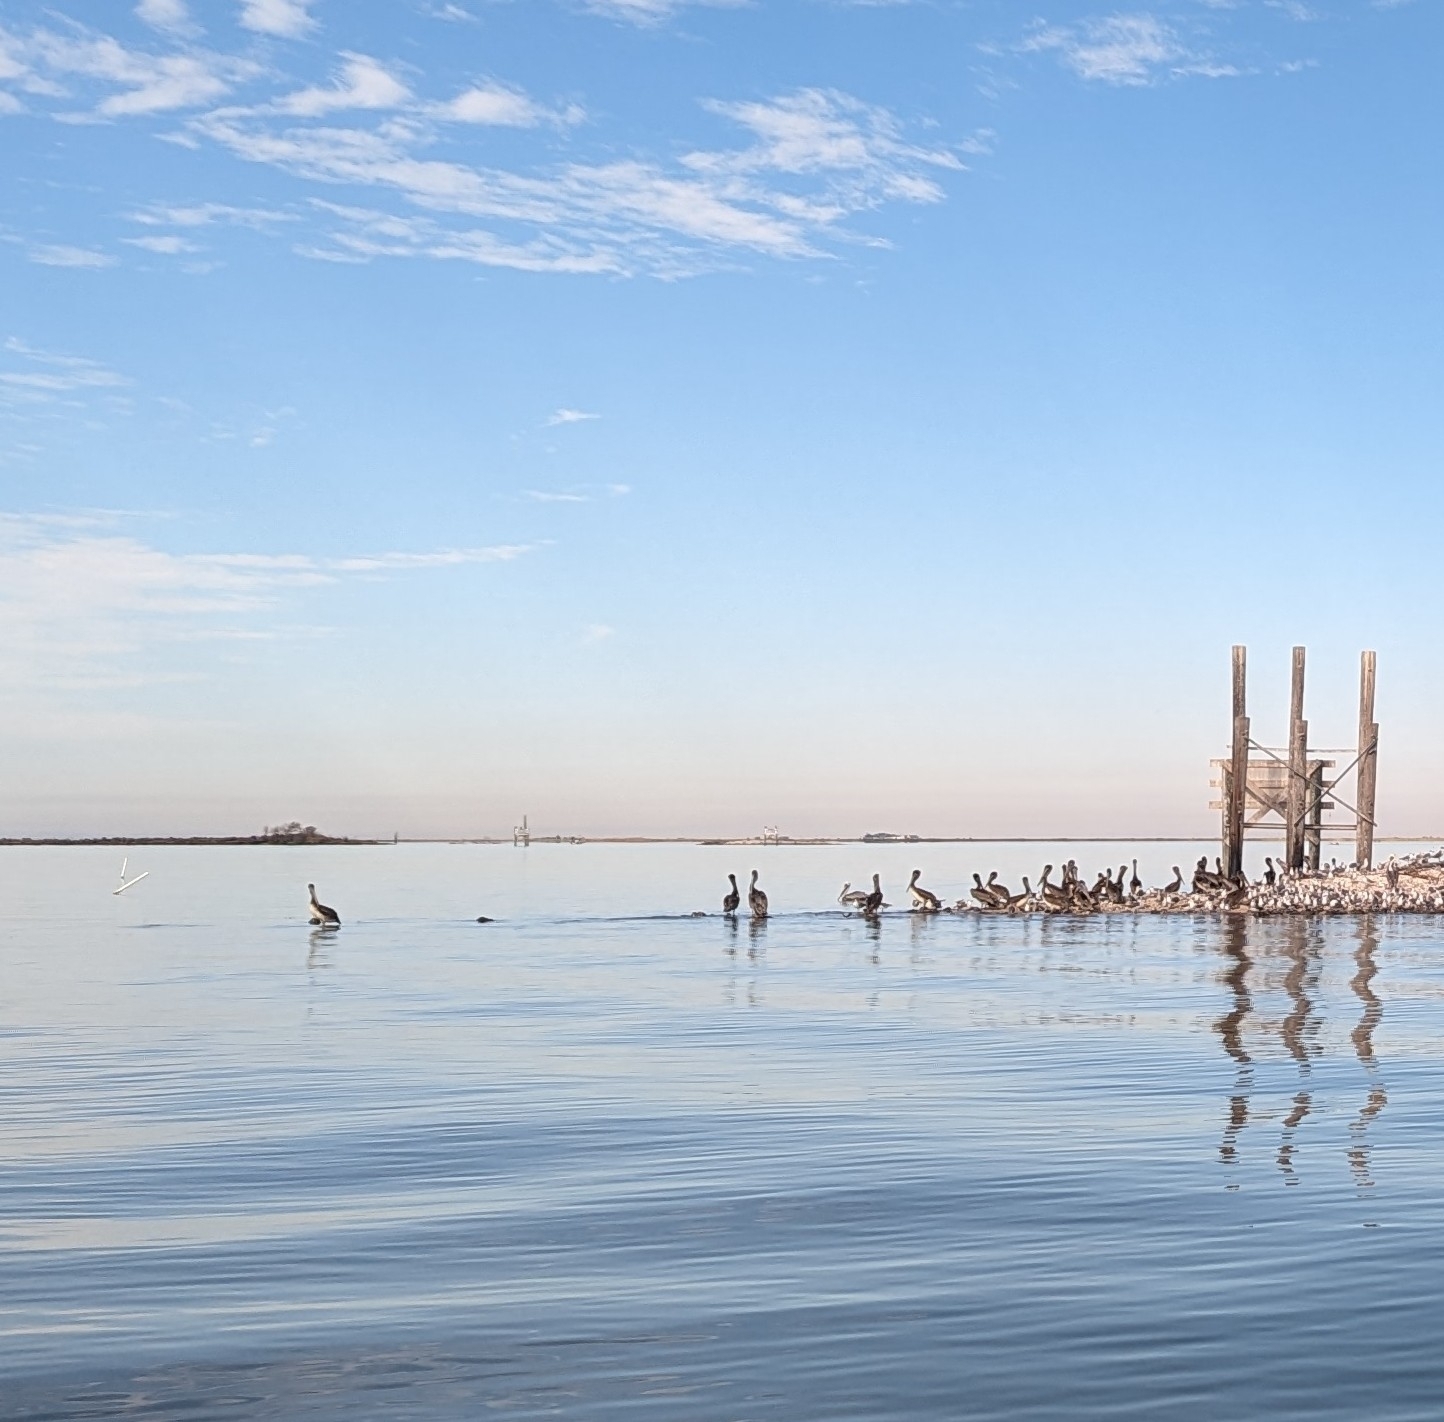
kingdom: Animalia
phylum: Chordata
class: Aves
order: Pelecaniformes
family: Pelecanidae
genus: Pelecanus
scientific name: Pelecanus occidentalis
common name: Brown pelican
